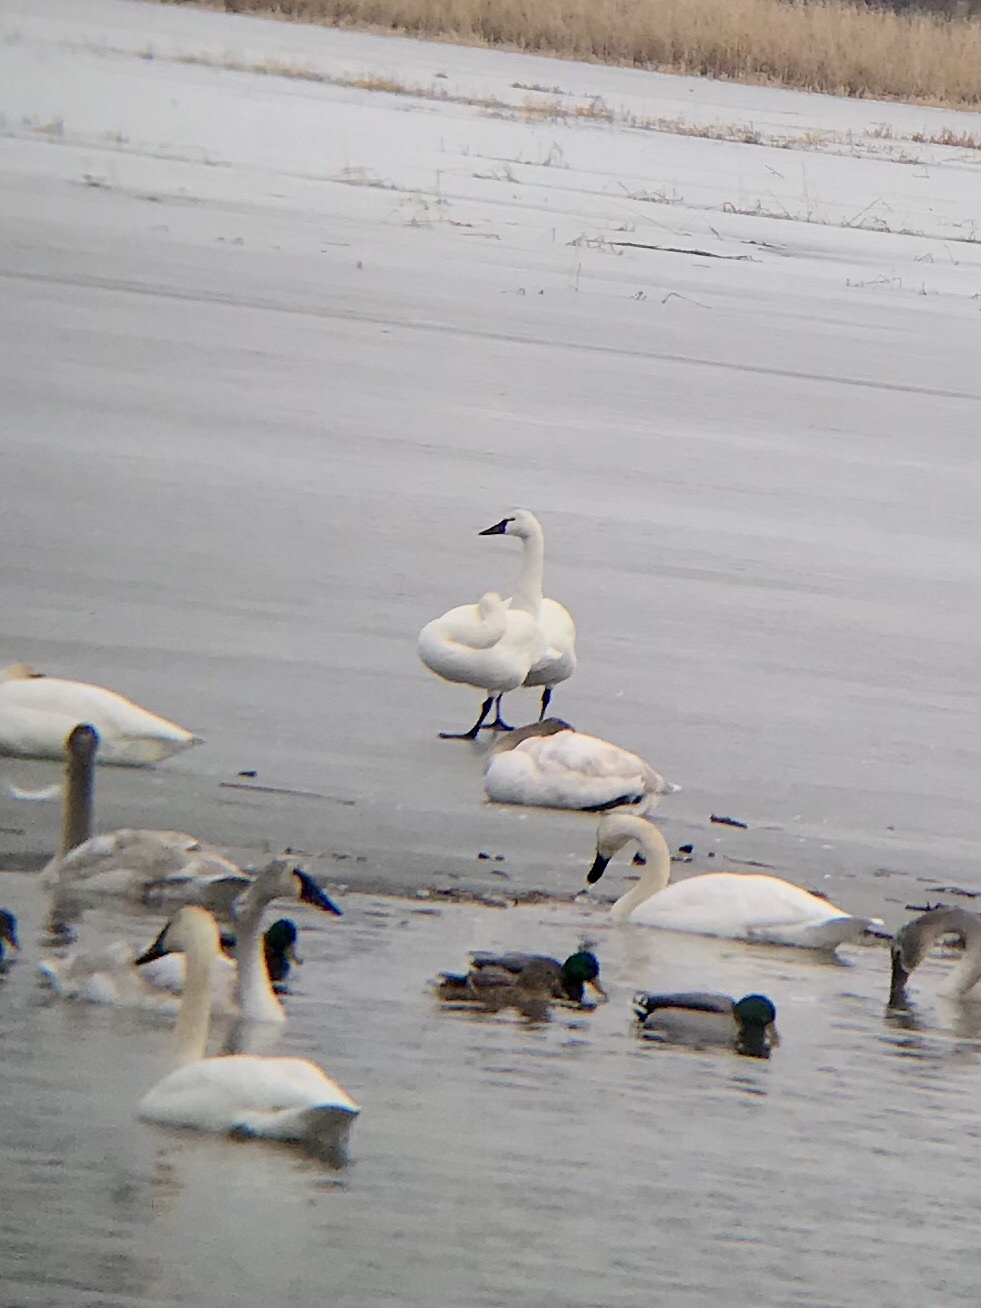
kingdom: Animalia
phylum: Chordata
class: Aves
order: Anseriformes
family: Anatidae
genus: Cygnus
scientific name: Cygnus columbianus
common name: Tundra swan
